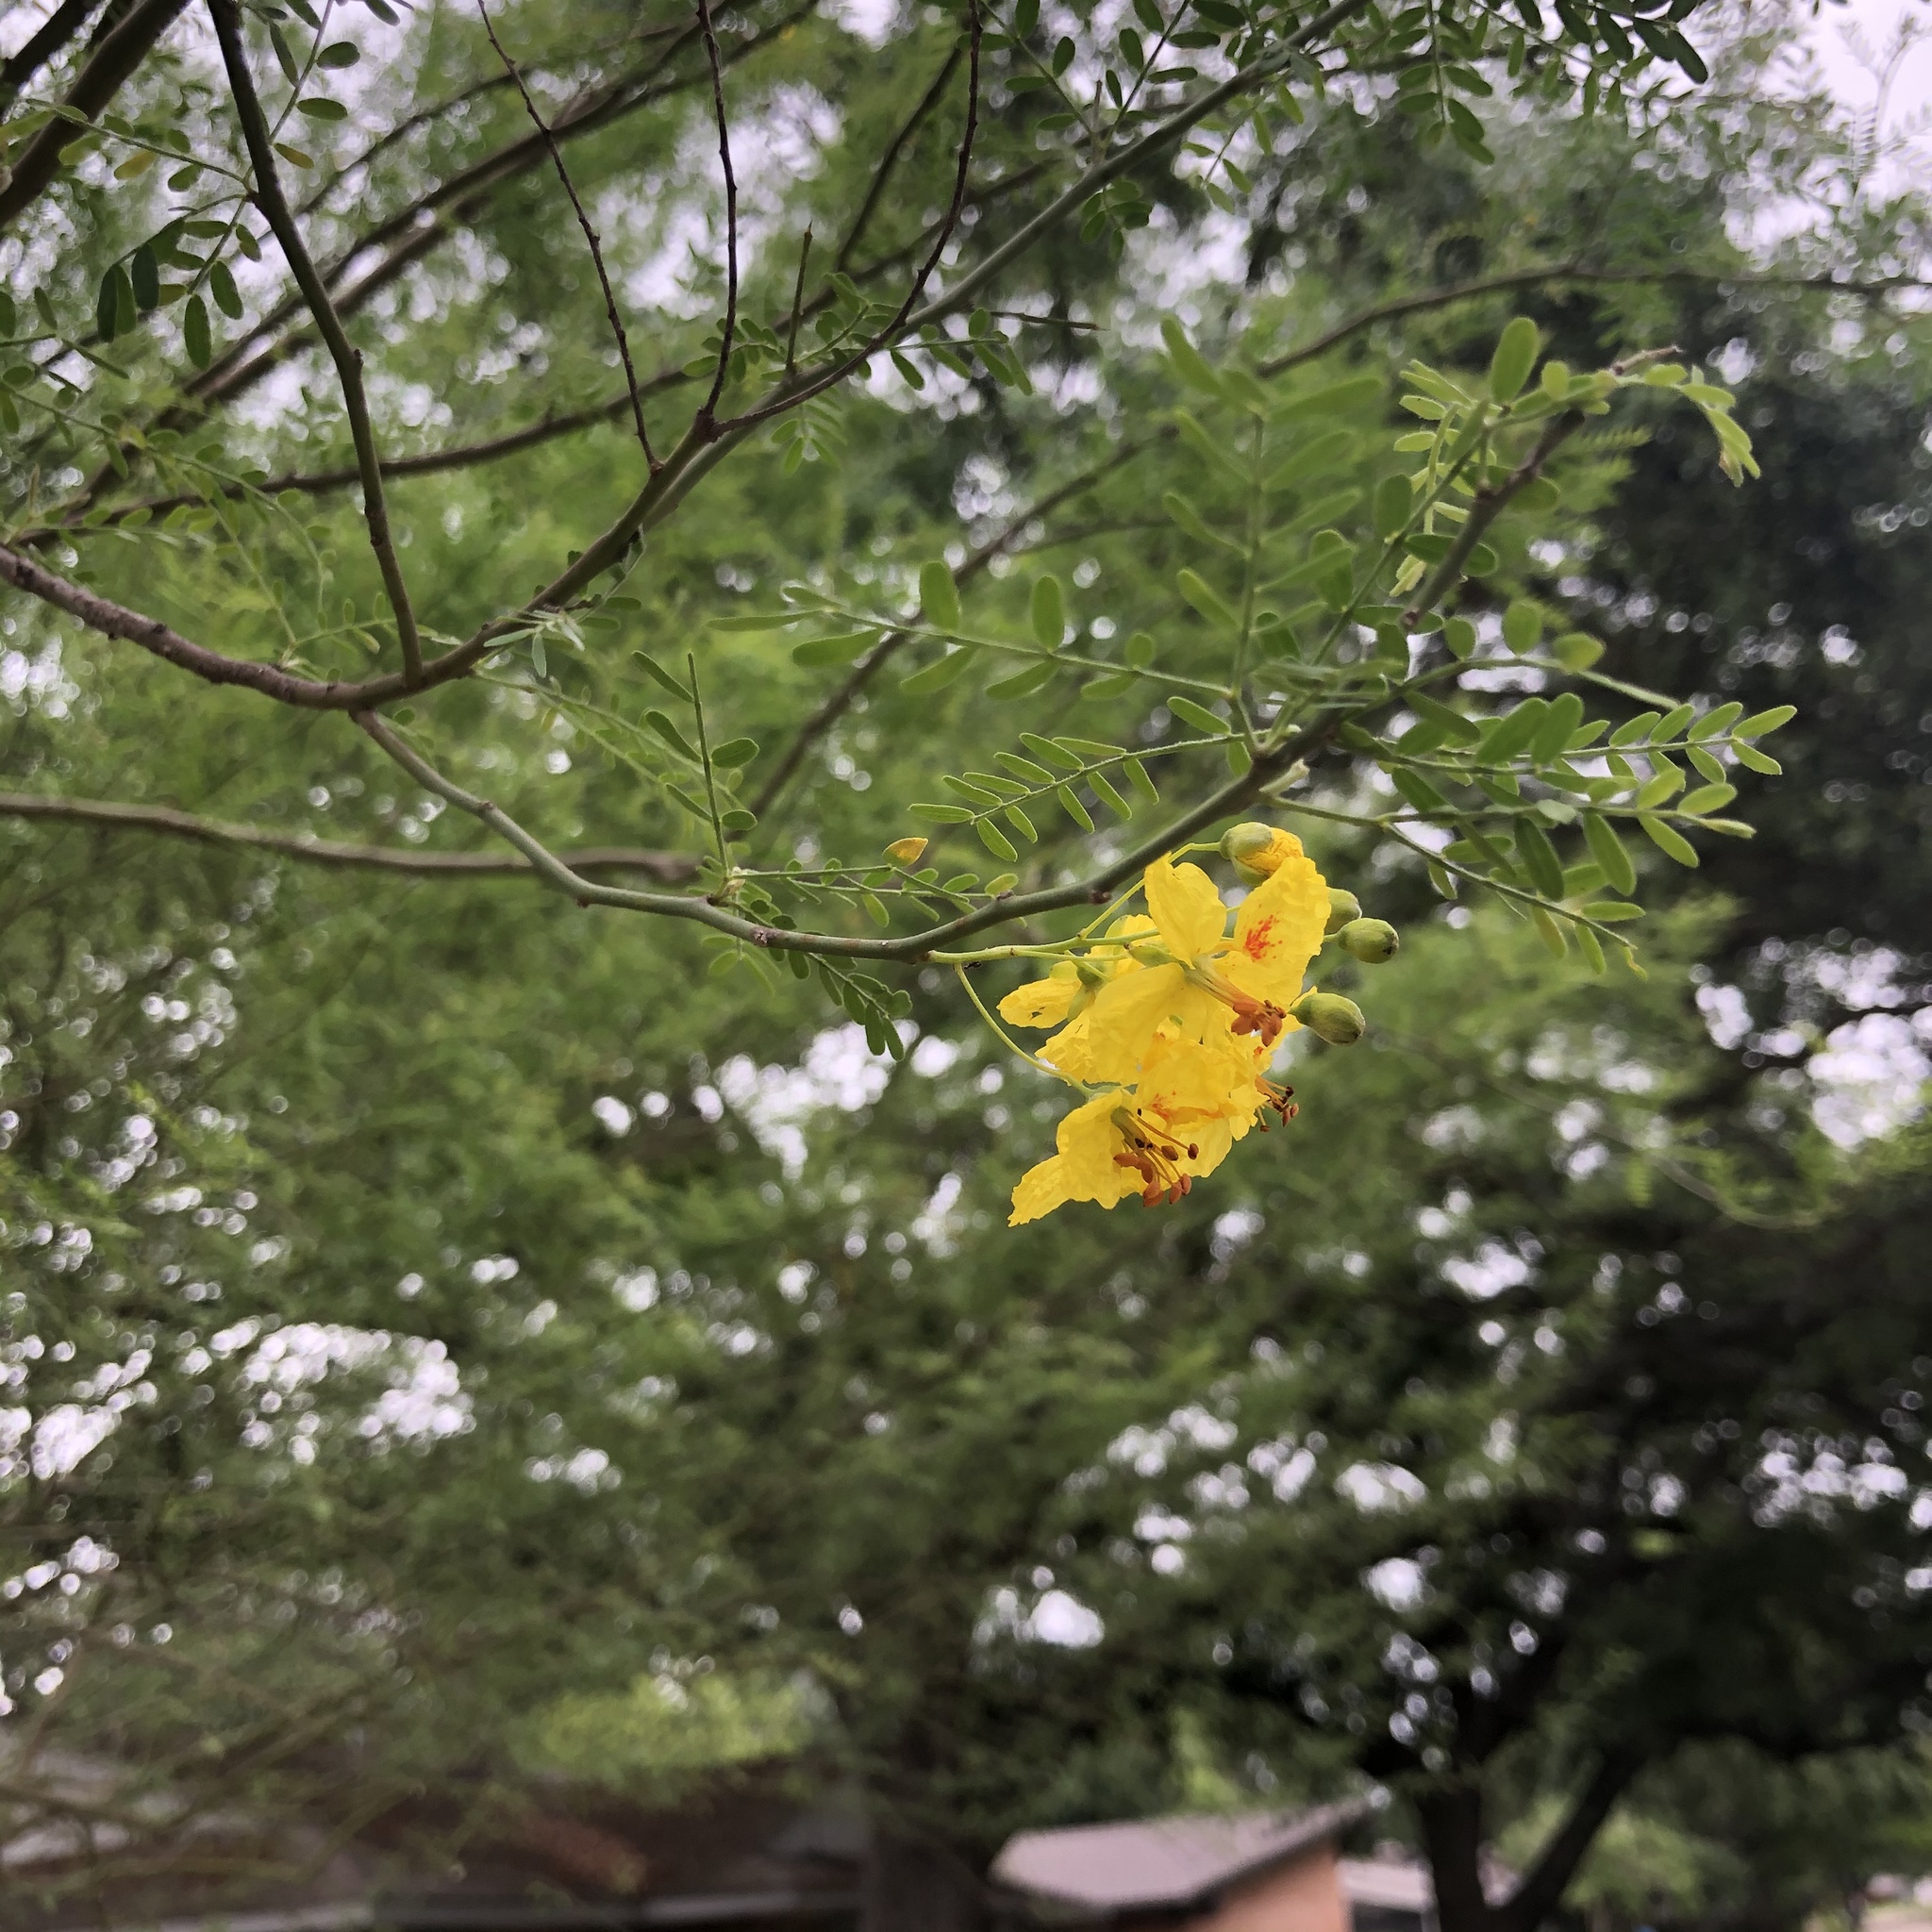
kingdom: Plantae
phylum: Tracheophyta
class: Magnoliopsida
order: Fabales
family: Fabaceae
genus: Parkinsonia
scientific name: Parkinsonia aculeata
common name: Jerusalem thorn
